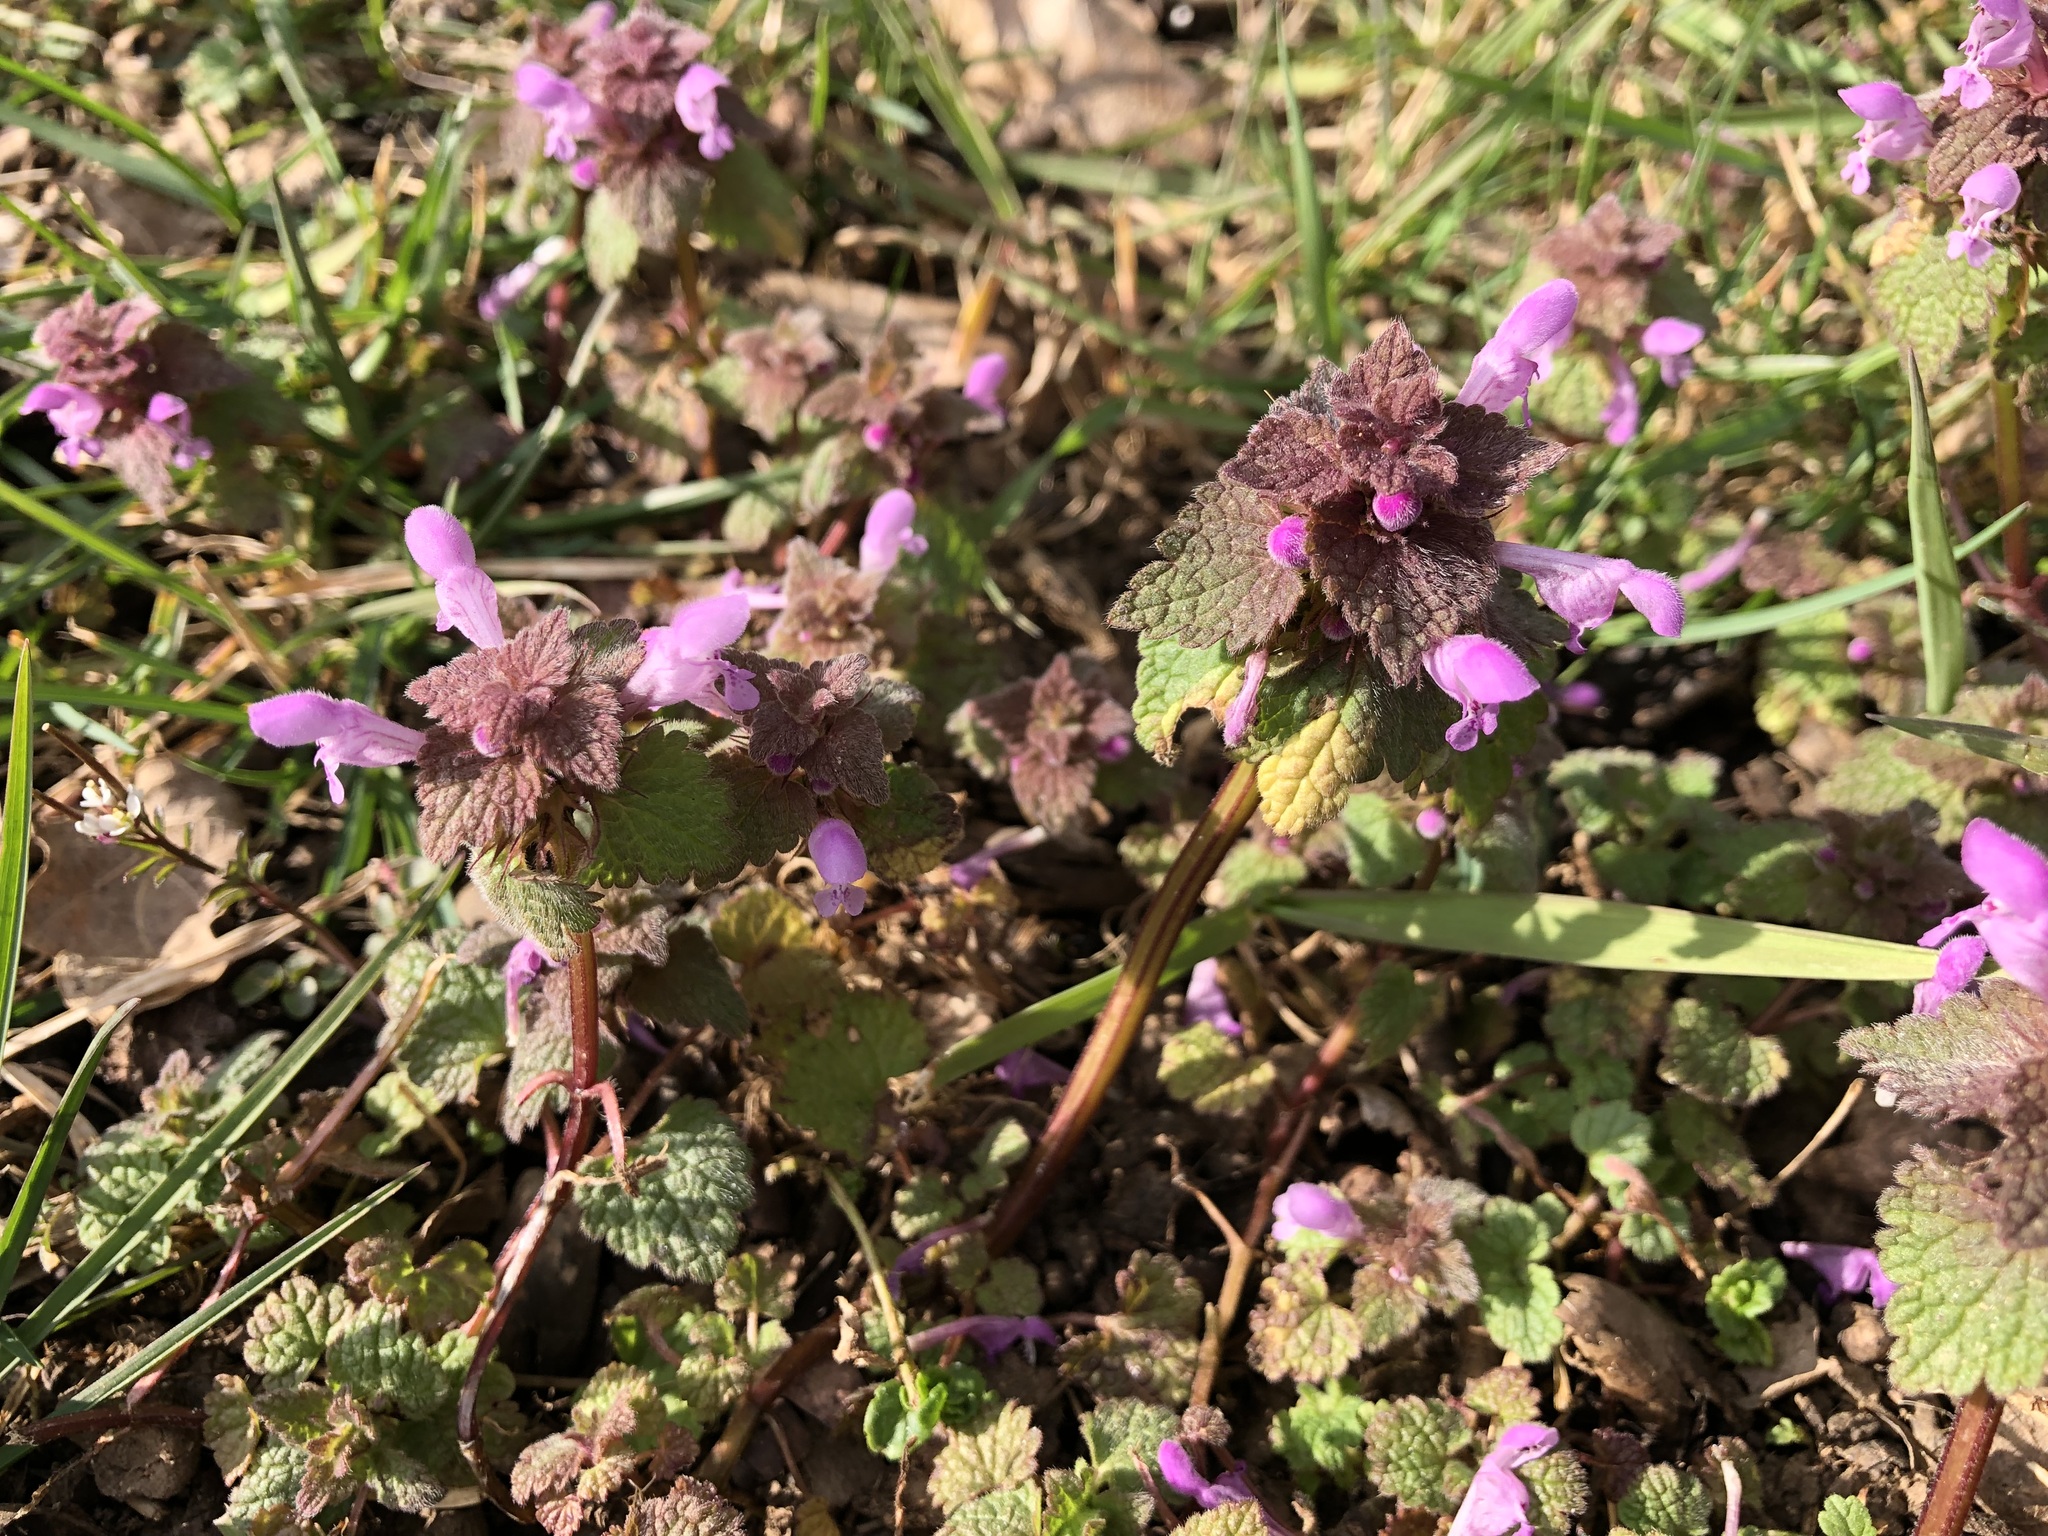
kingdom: Plantae
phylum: Tracheophyta
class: Magnoliopsida
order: Lamiales
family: Lamiaceae
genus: Lamium
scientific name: Lamium purpureum
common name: Red dead-nettle
